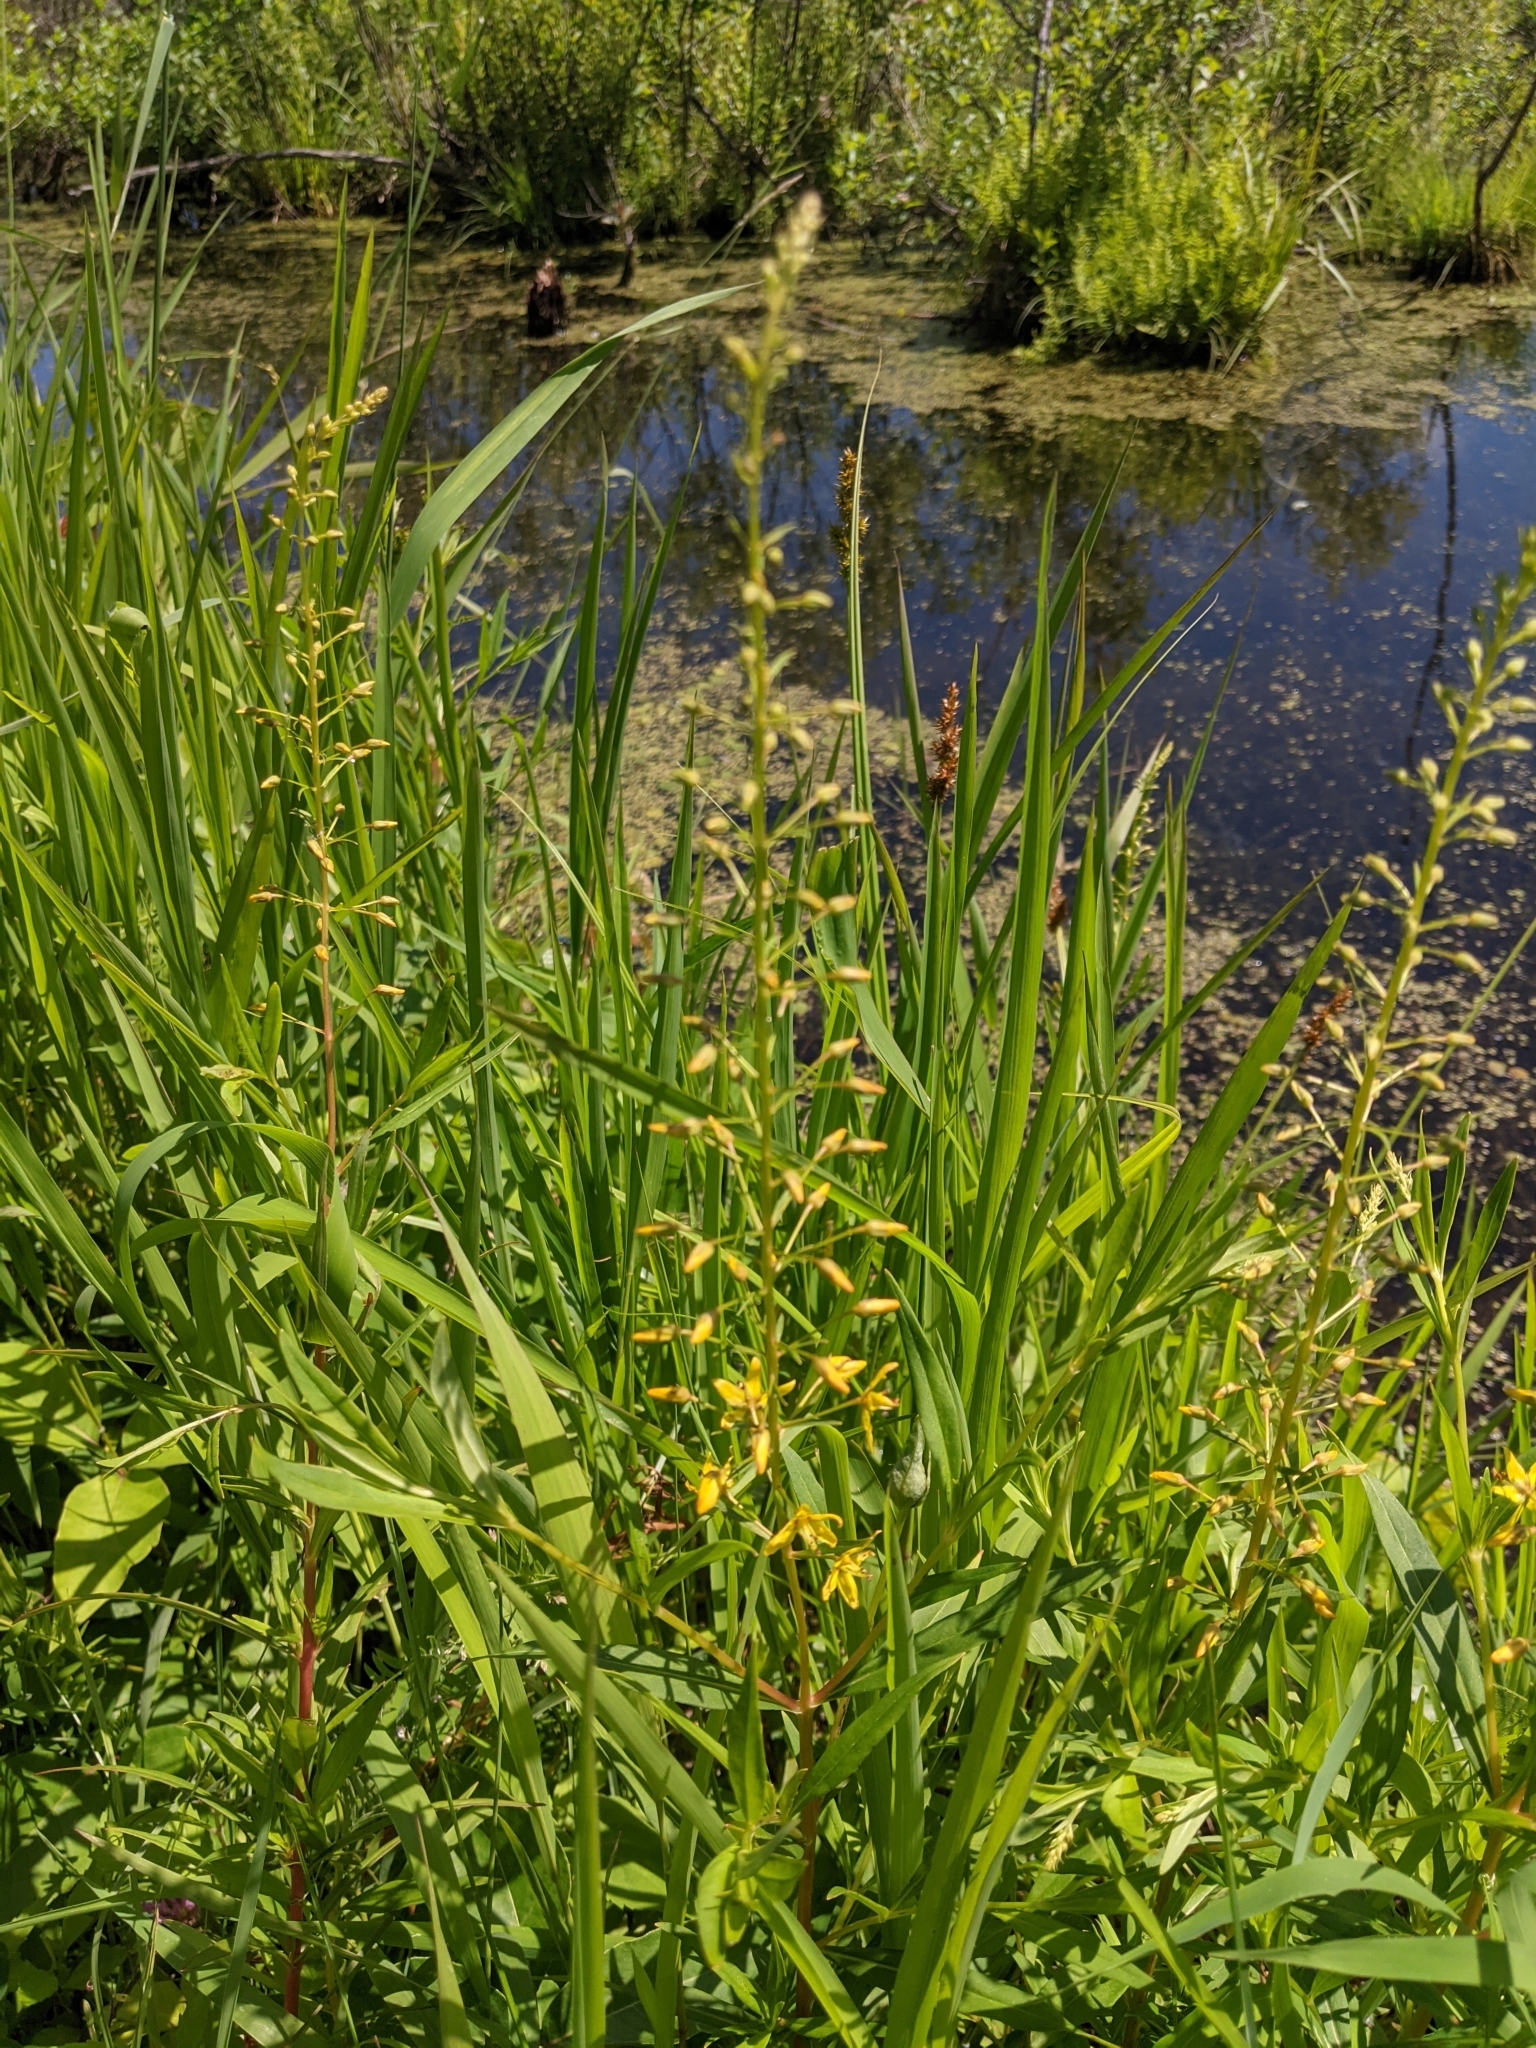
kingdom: Plantae
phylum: Tracheophyta
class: Magnoliopsida
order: Ericales
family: Primulaceae
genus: Lysimachia
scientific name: Lysimachia terrestris
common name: Lake loosestrife
